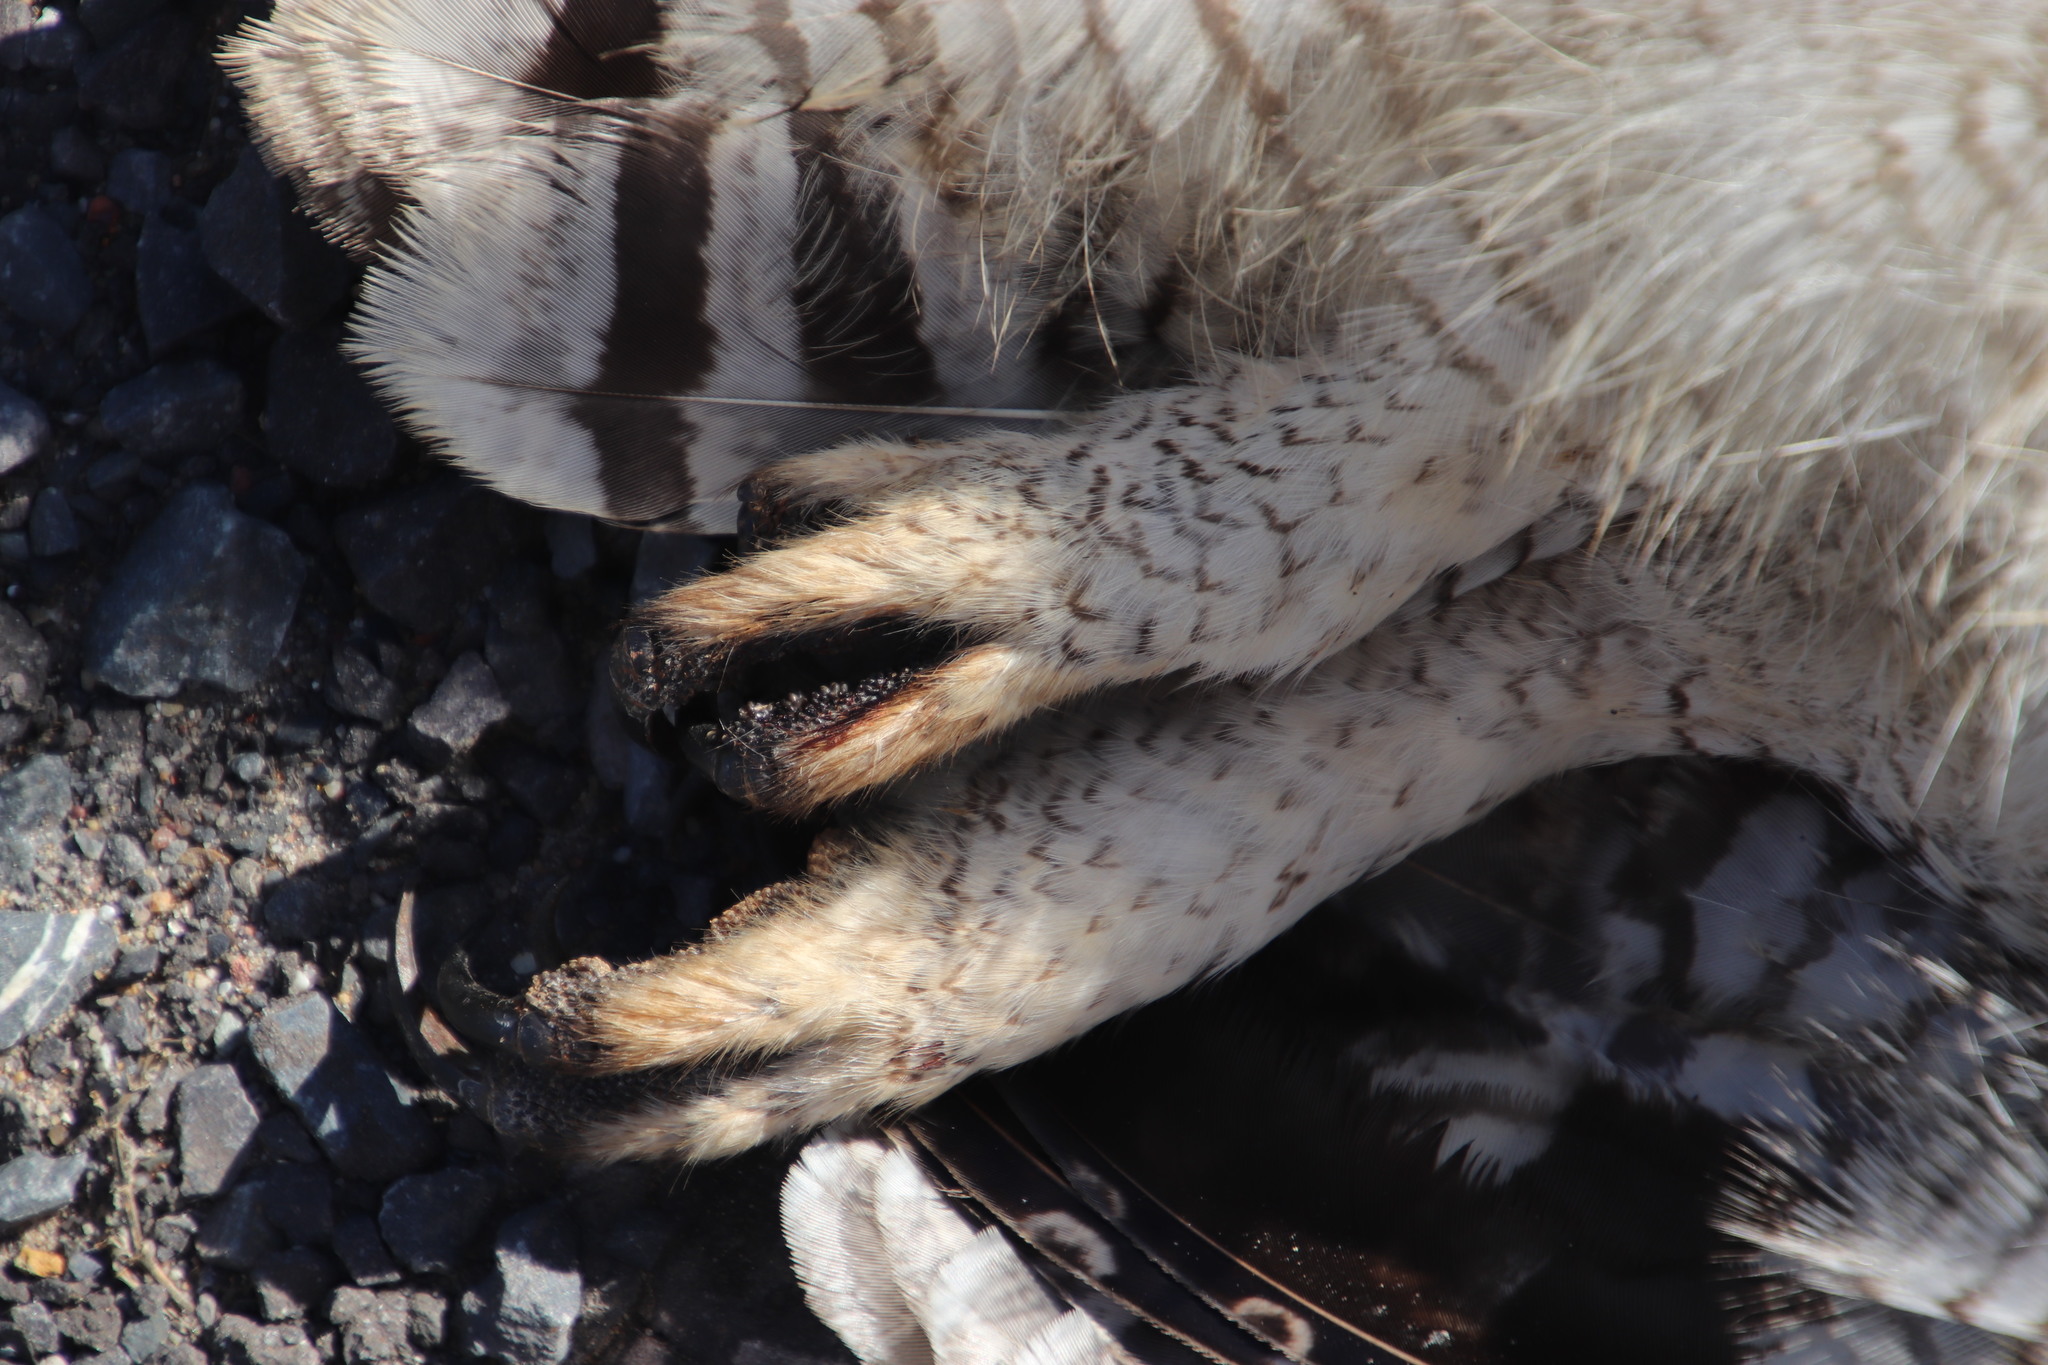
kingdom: Animalia
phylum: Chordata
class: Aves
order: Strigiformes
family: Strigidae
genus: Bubo
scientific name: Bubo africanus
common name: Spotted eagle-owl
